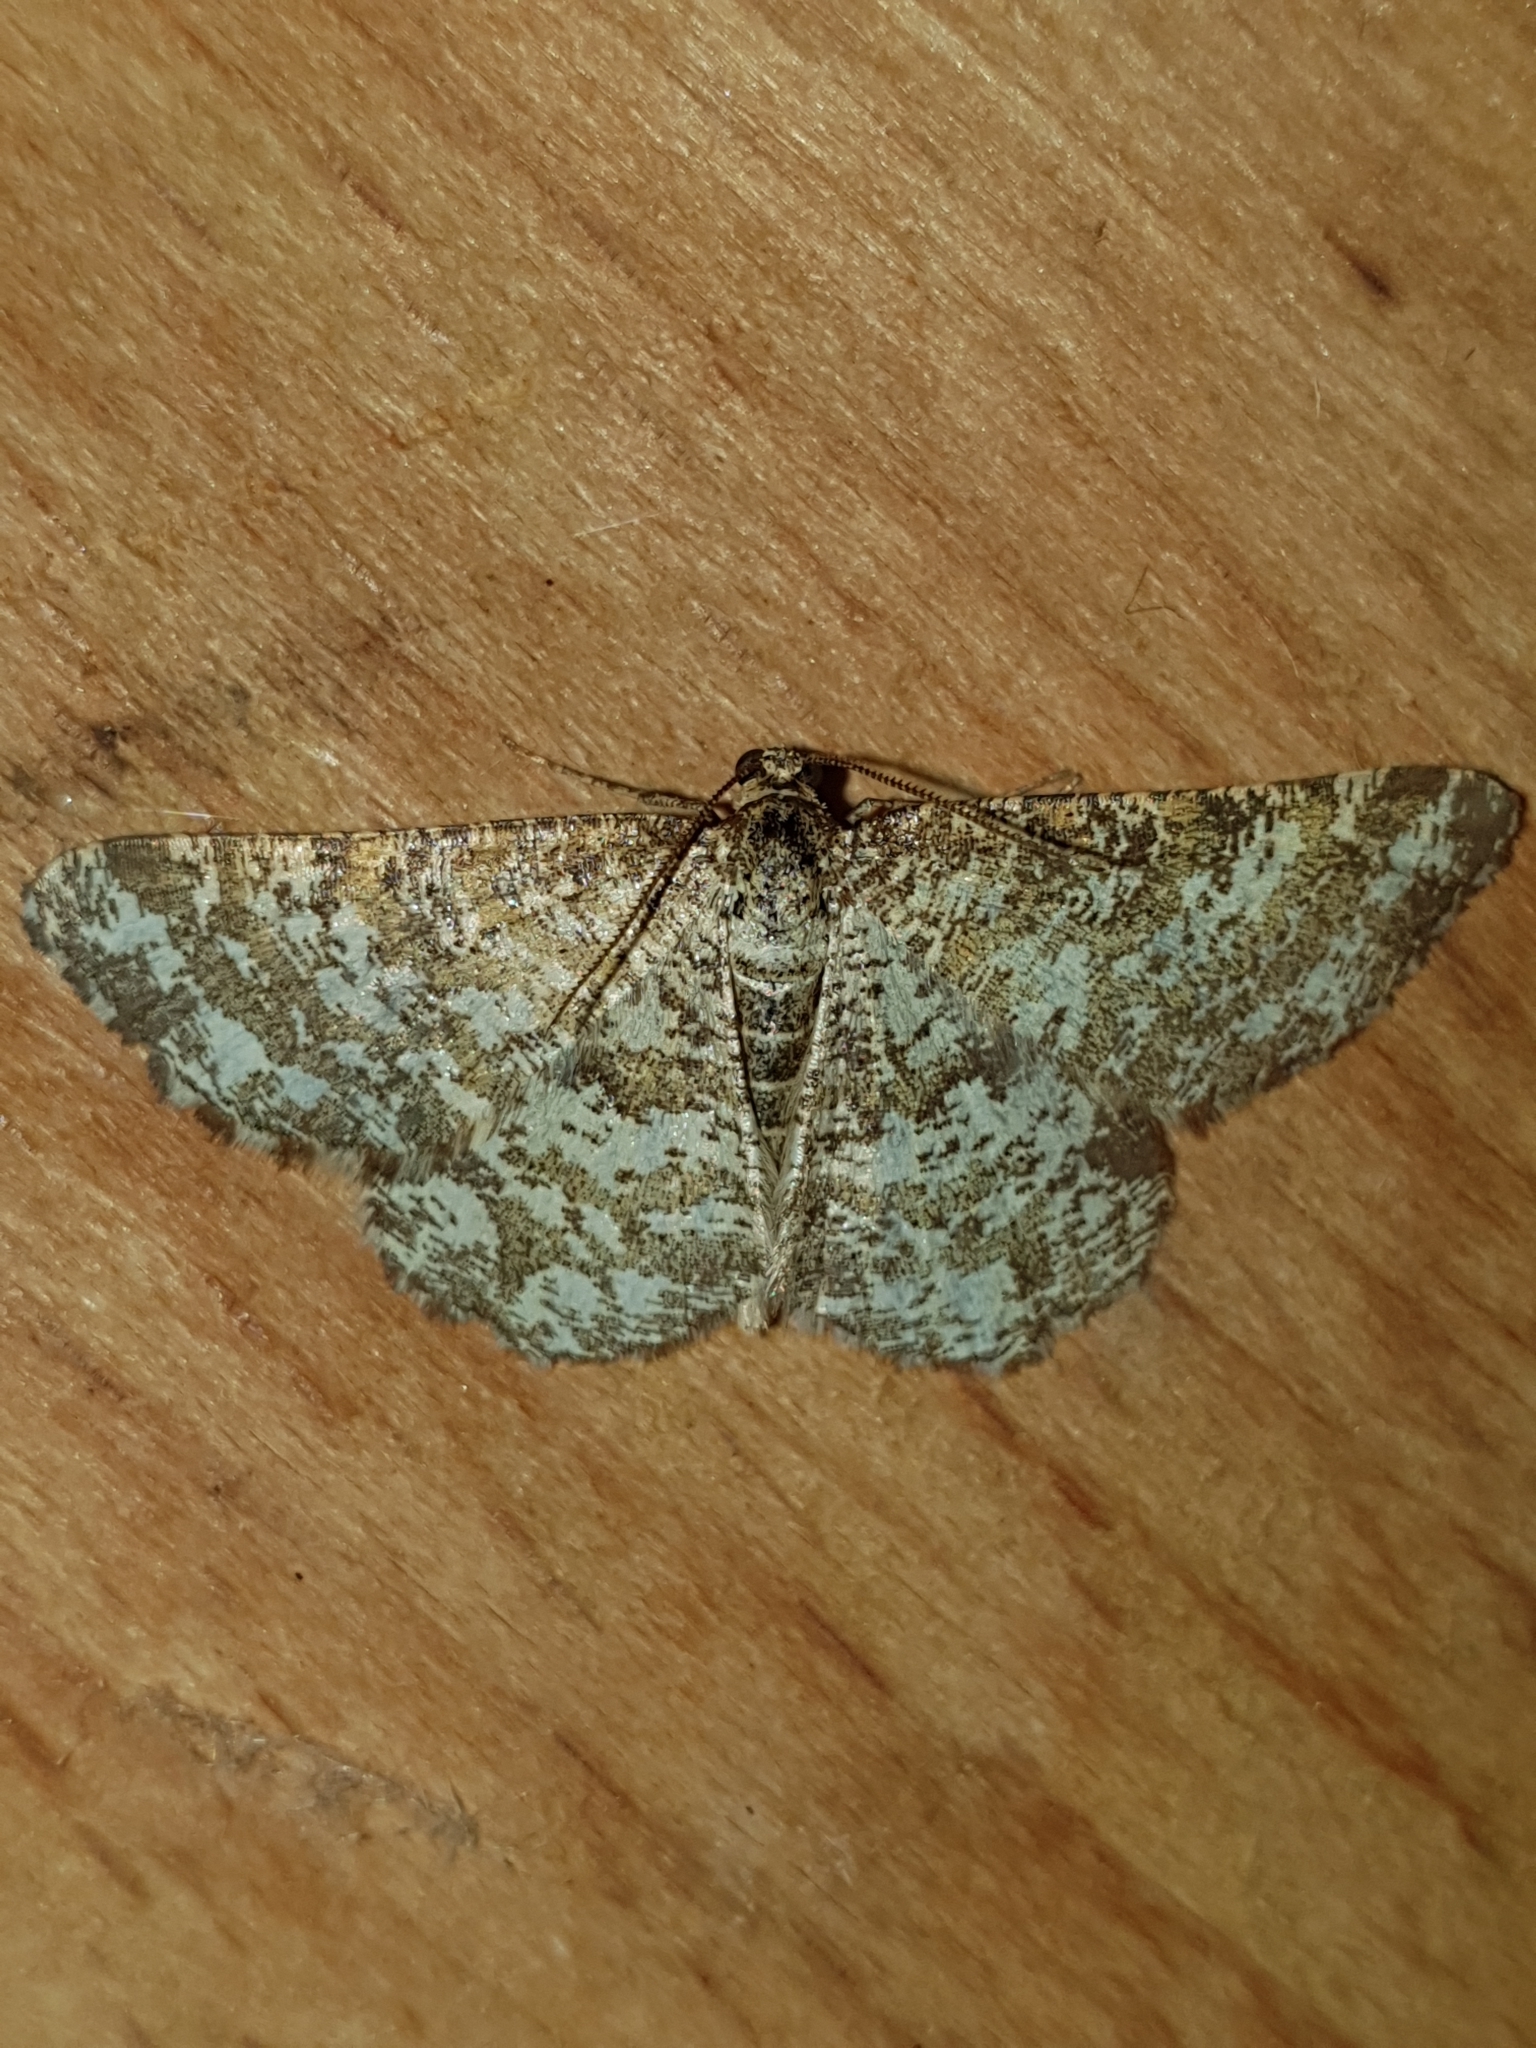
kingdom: Animalia
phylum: Arthropoda
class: Insecta
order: Lepidoptera
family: Geometridae
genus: Heliomata
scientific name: Heliomata glarearia
